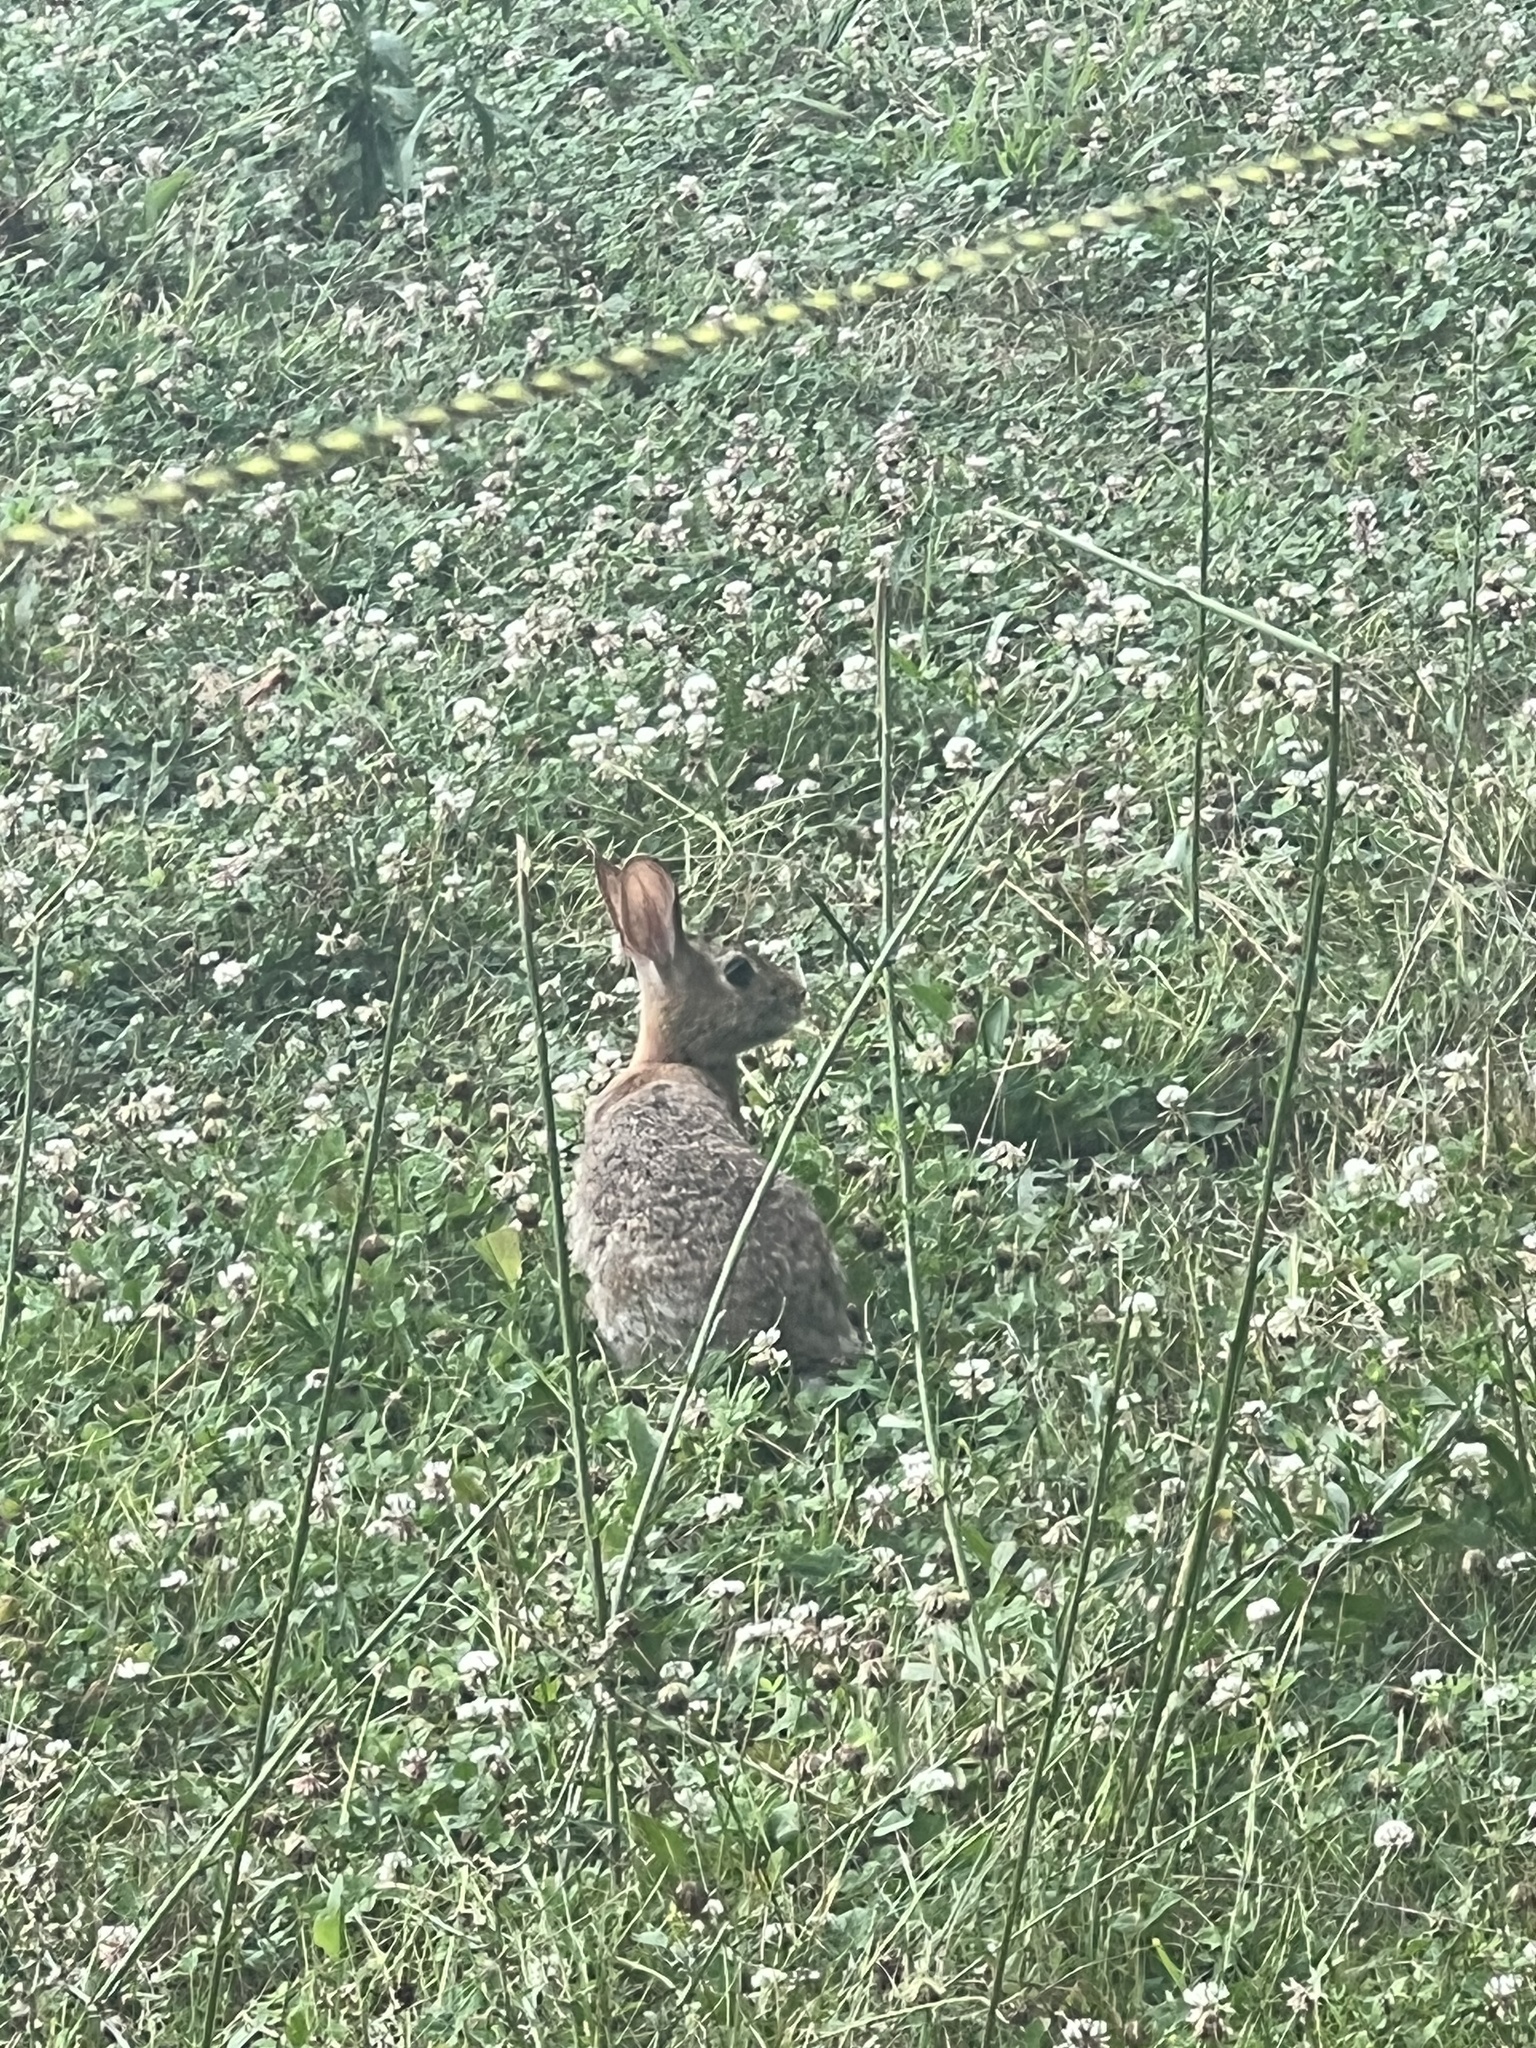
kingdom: Animalia
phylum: Chordata
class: Mammalia
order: Lagomorpha
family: Leporidae
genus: Sylvilagus
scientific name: Sylvilagus floridanus
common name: Eastern cottontail
